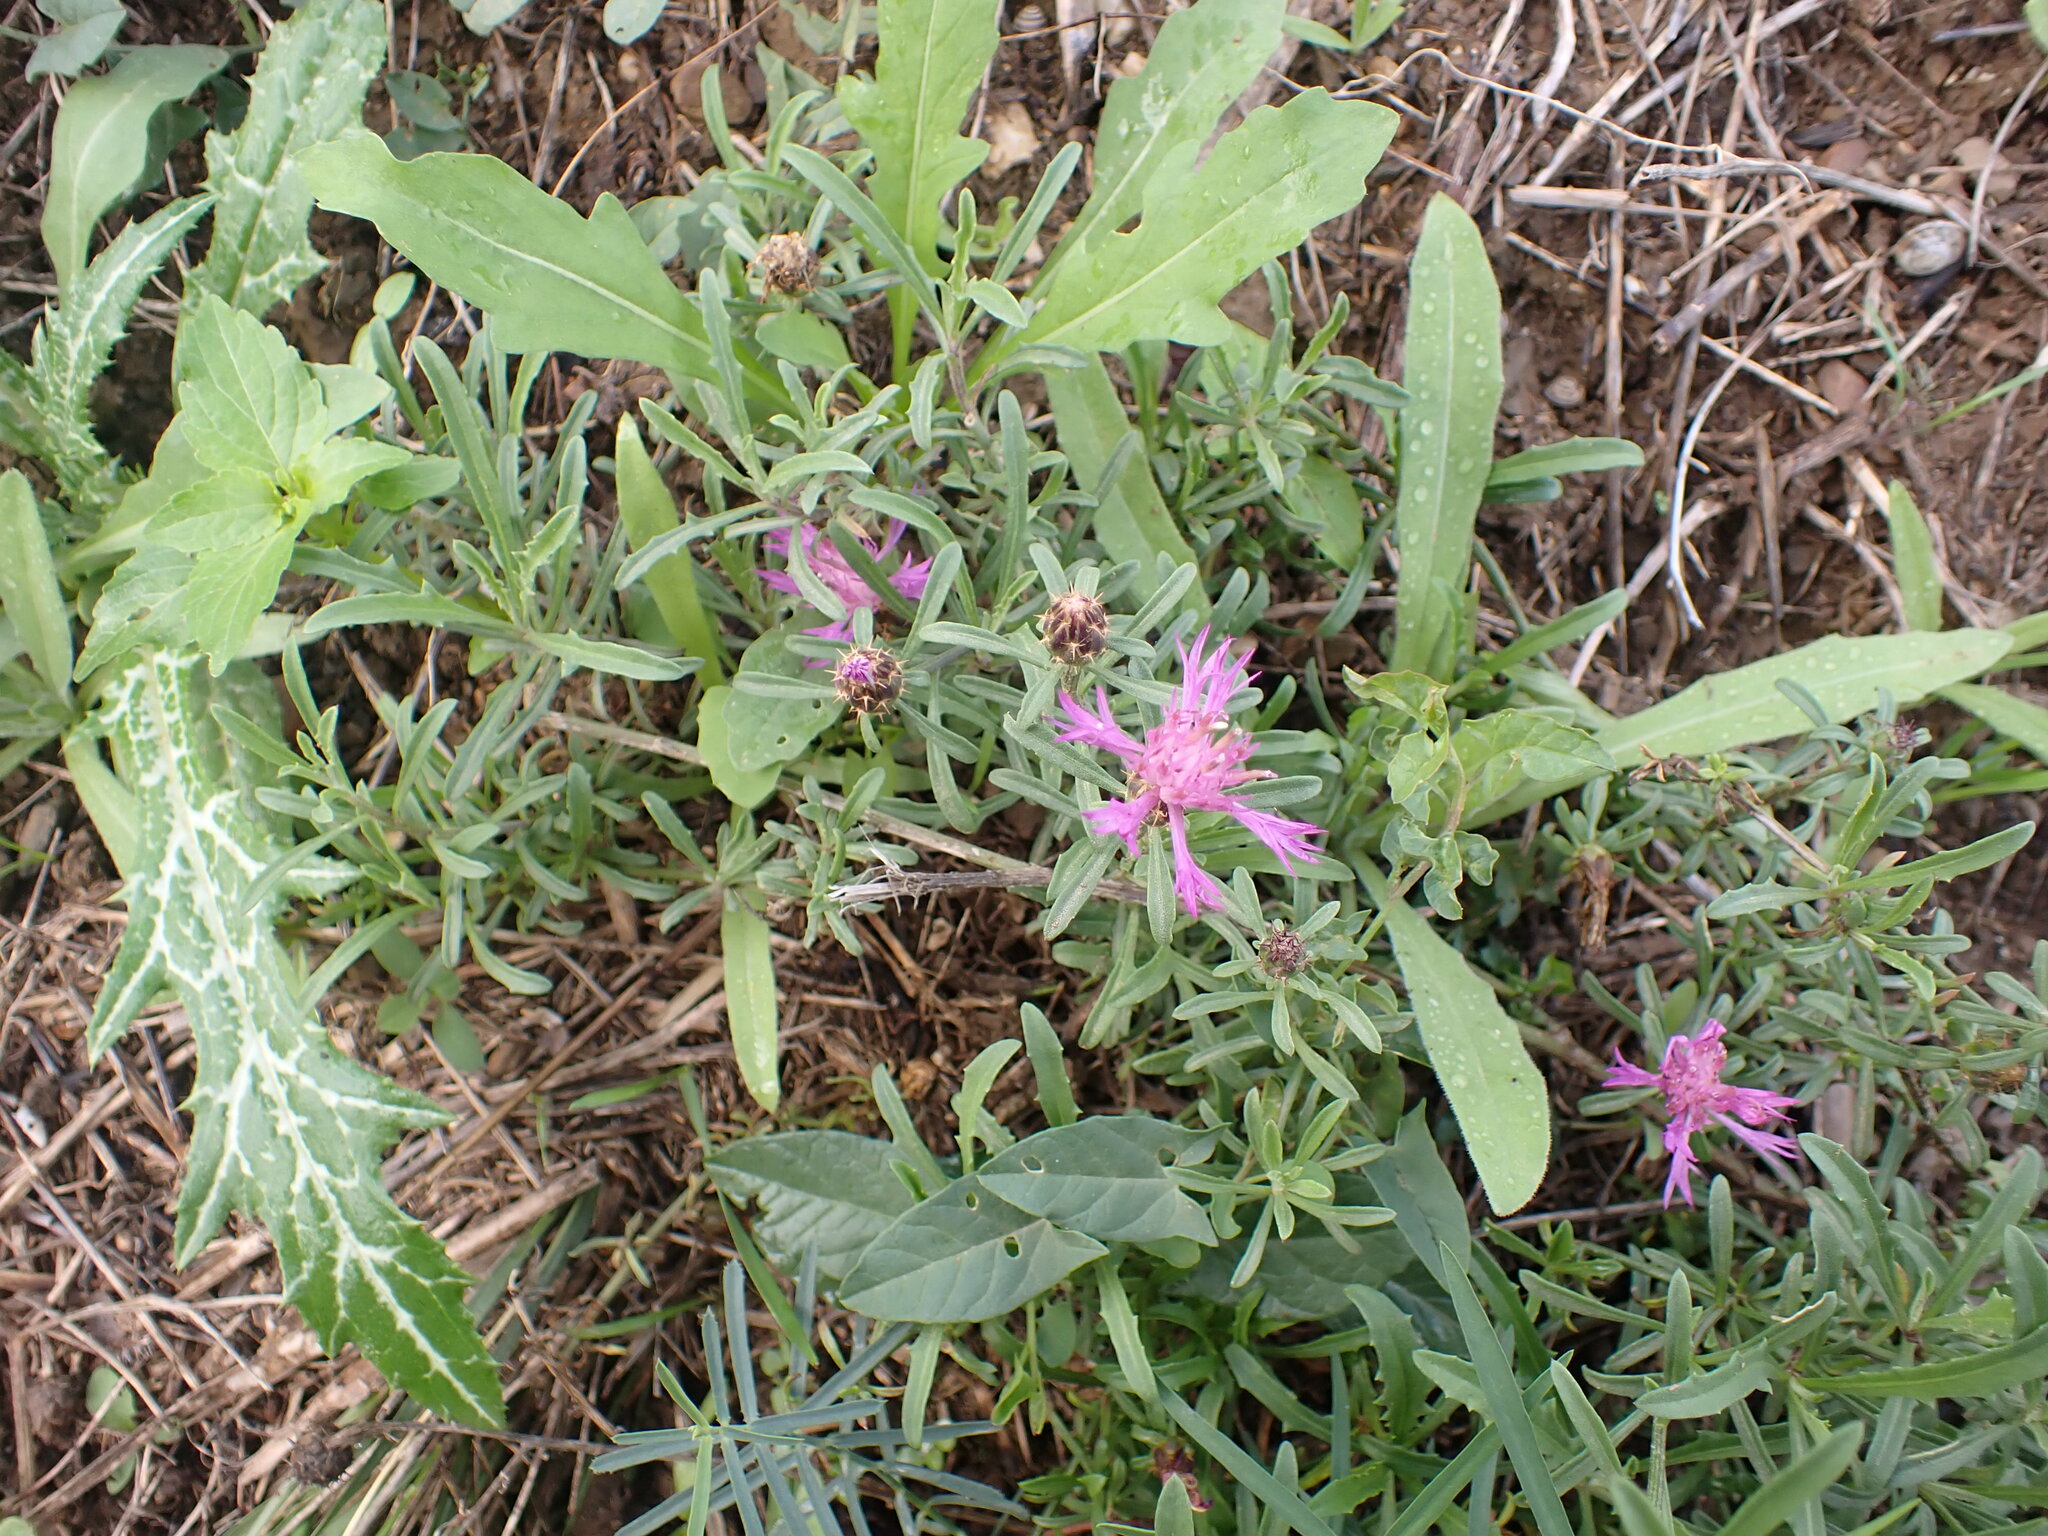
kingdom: Plantae
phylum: Tracheophyta
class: Magnoliopsida
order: Asterales
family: Asteraceae
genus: Centaurea
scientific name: Centaurea aspera
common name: Rough star-thistle
